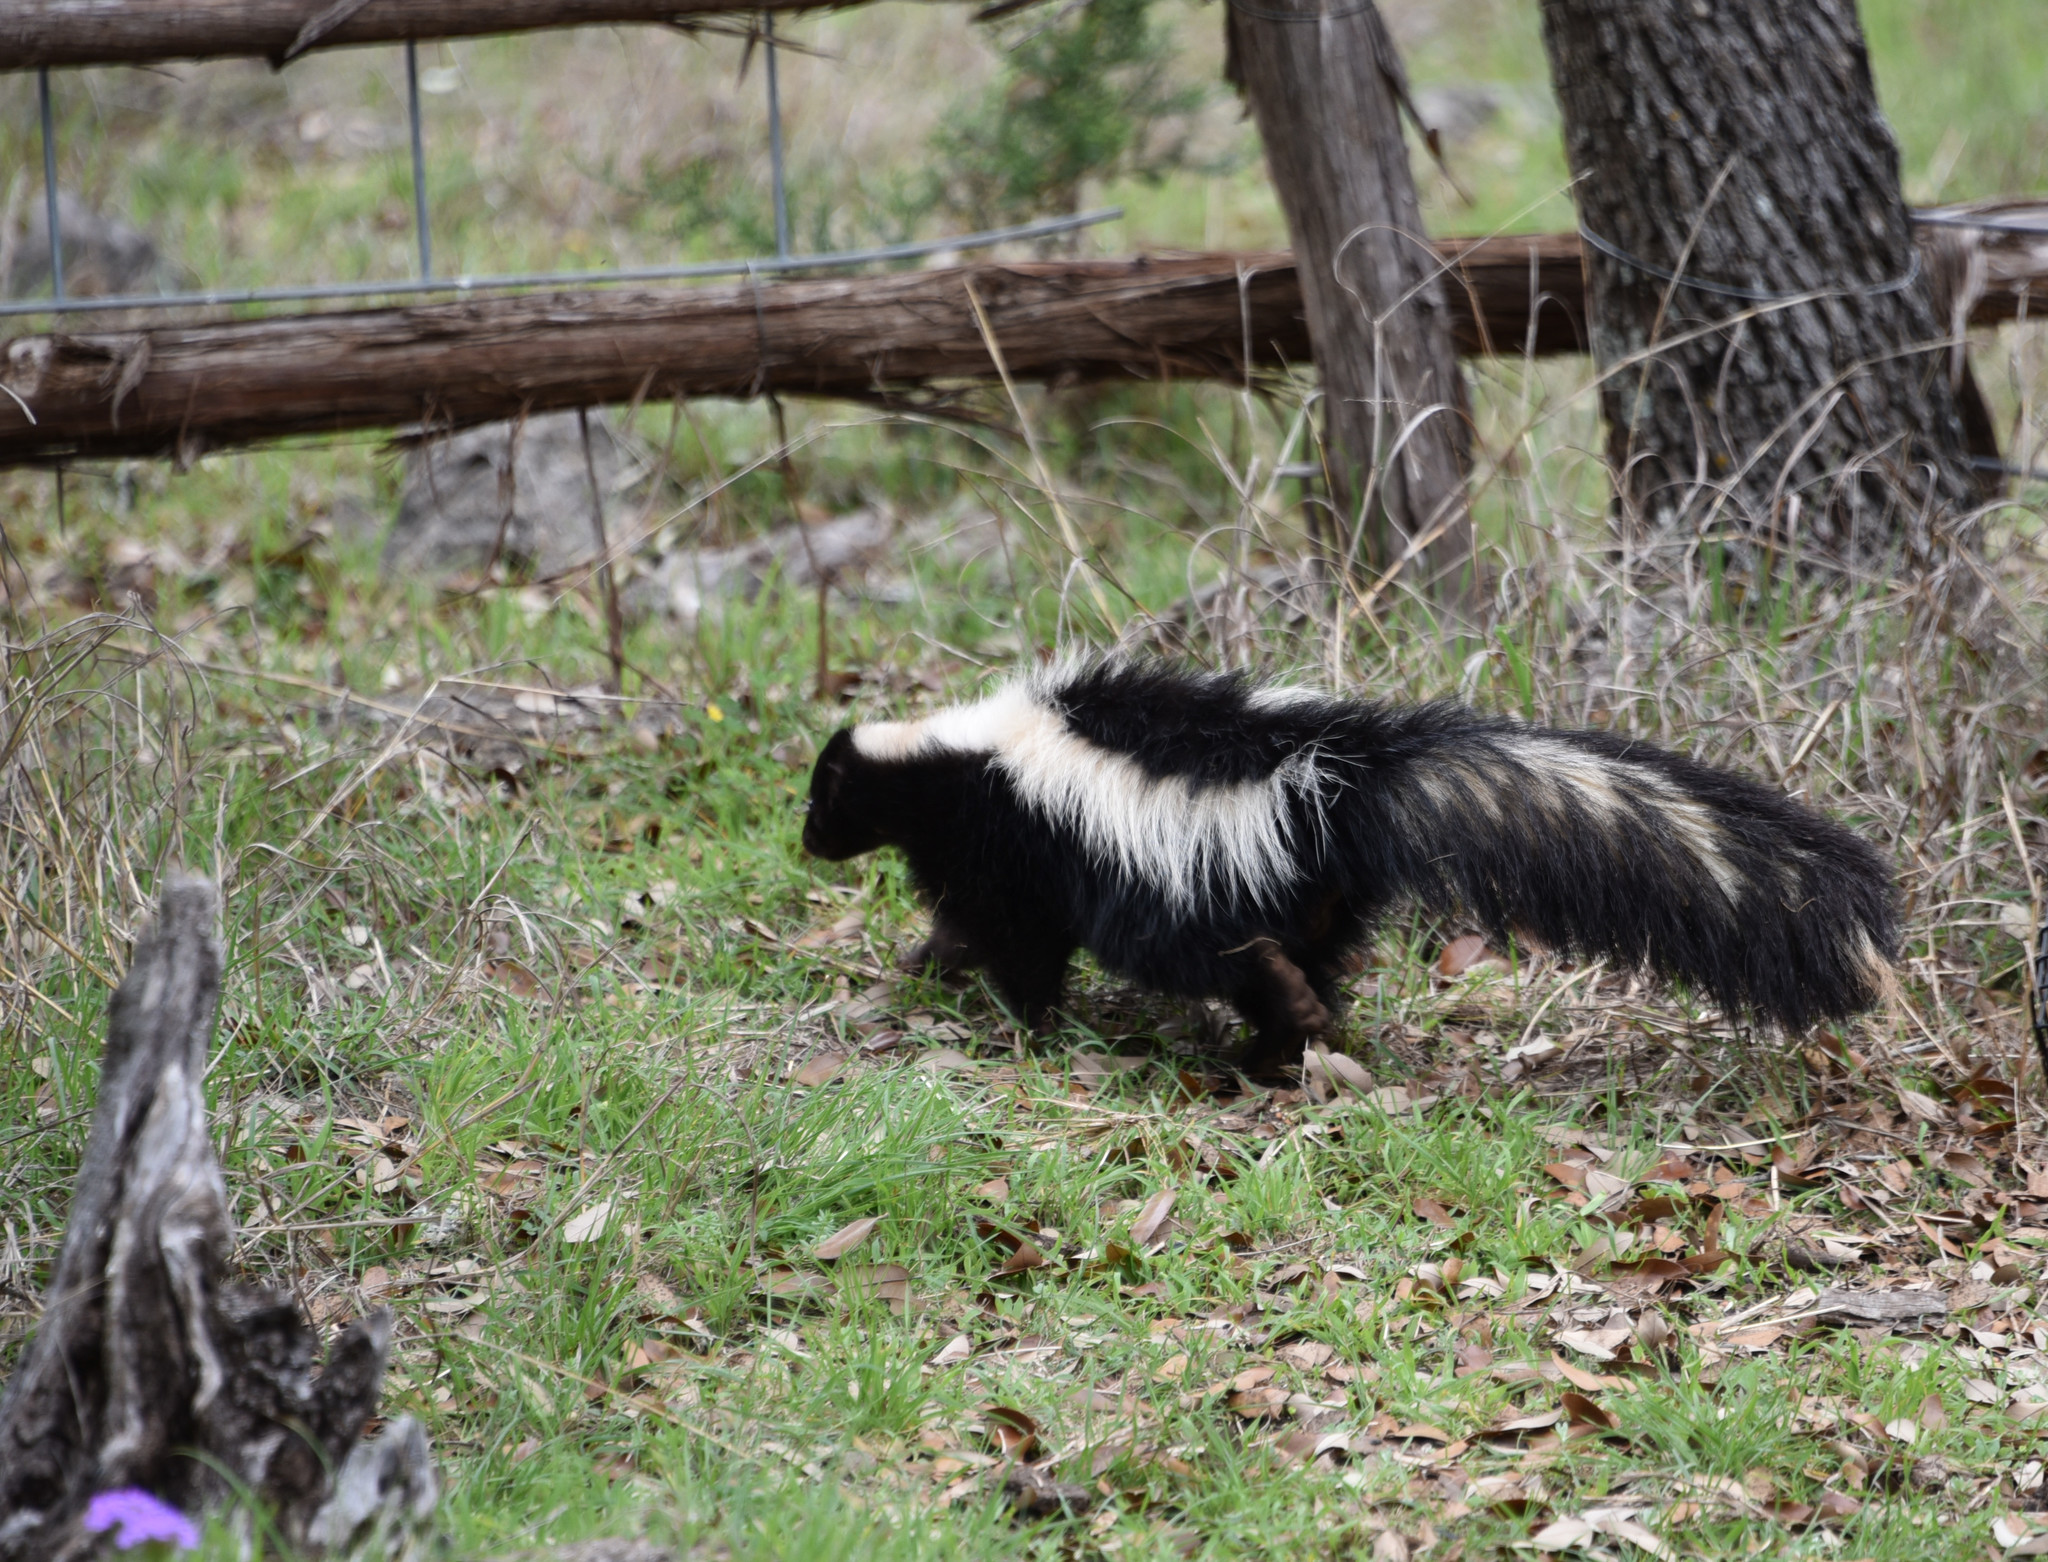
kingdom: Animalia
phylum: Chordata
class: Mammalia
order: Carnivora
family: Mephitidae
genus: Mephitis
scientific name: Mephitis mephitis
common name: Striped skunk
